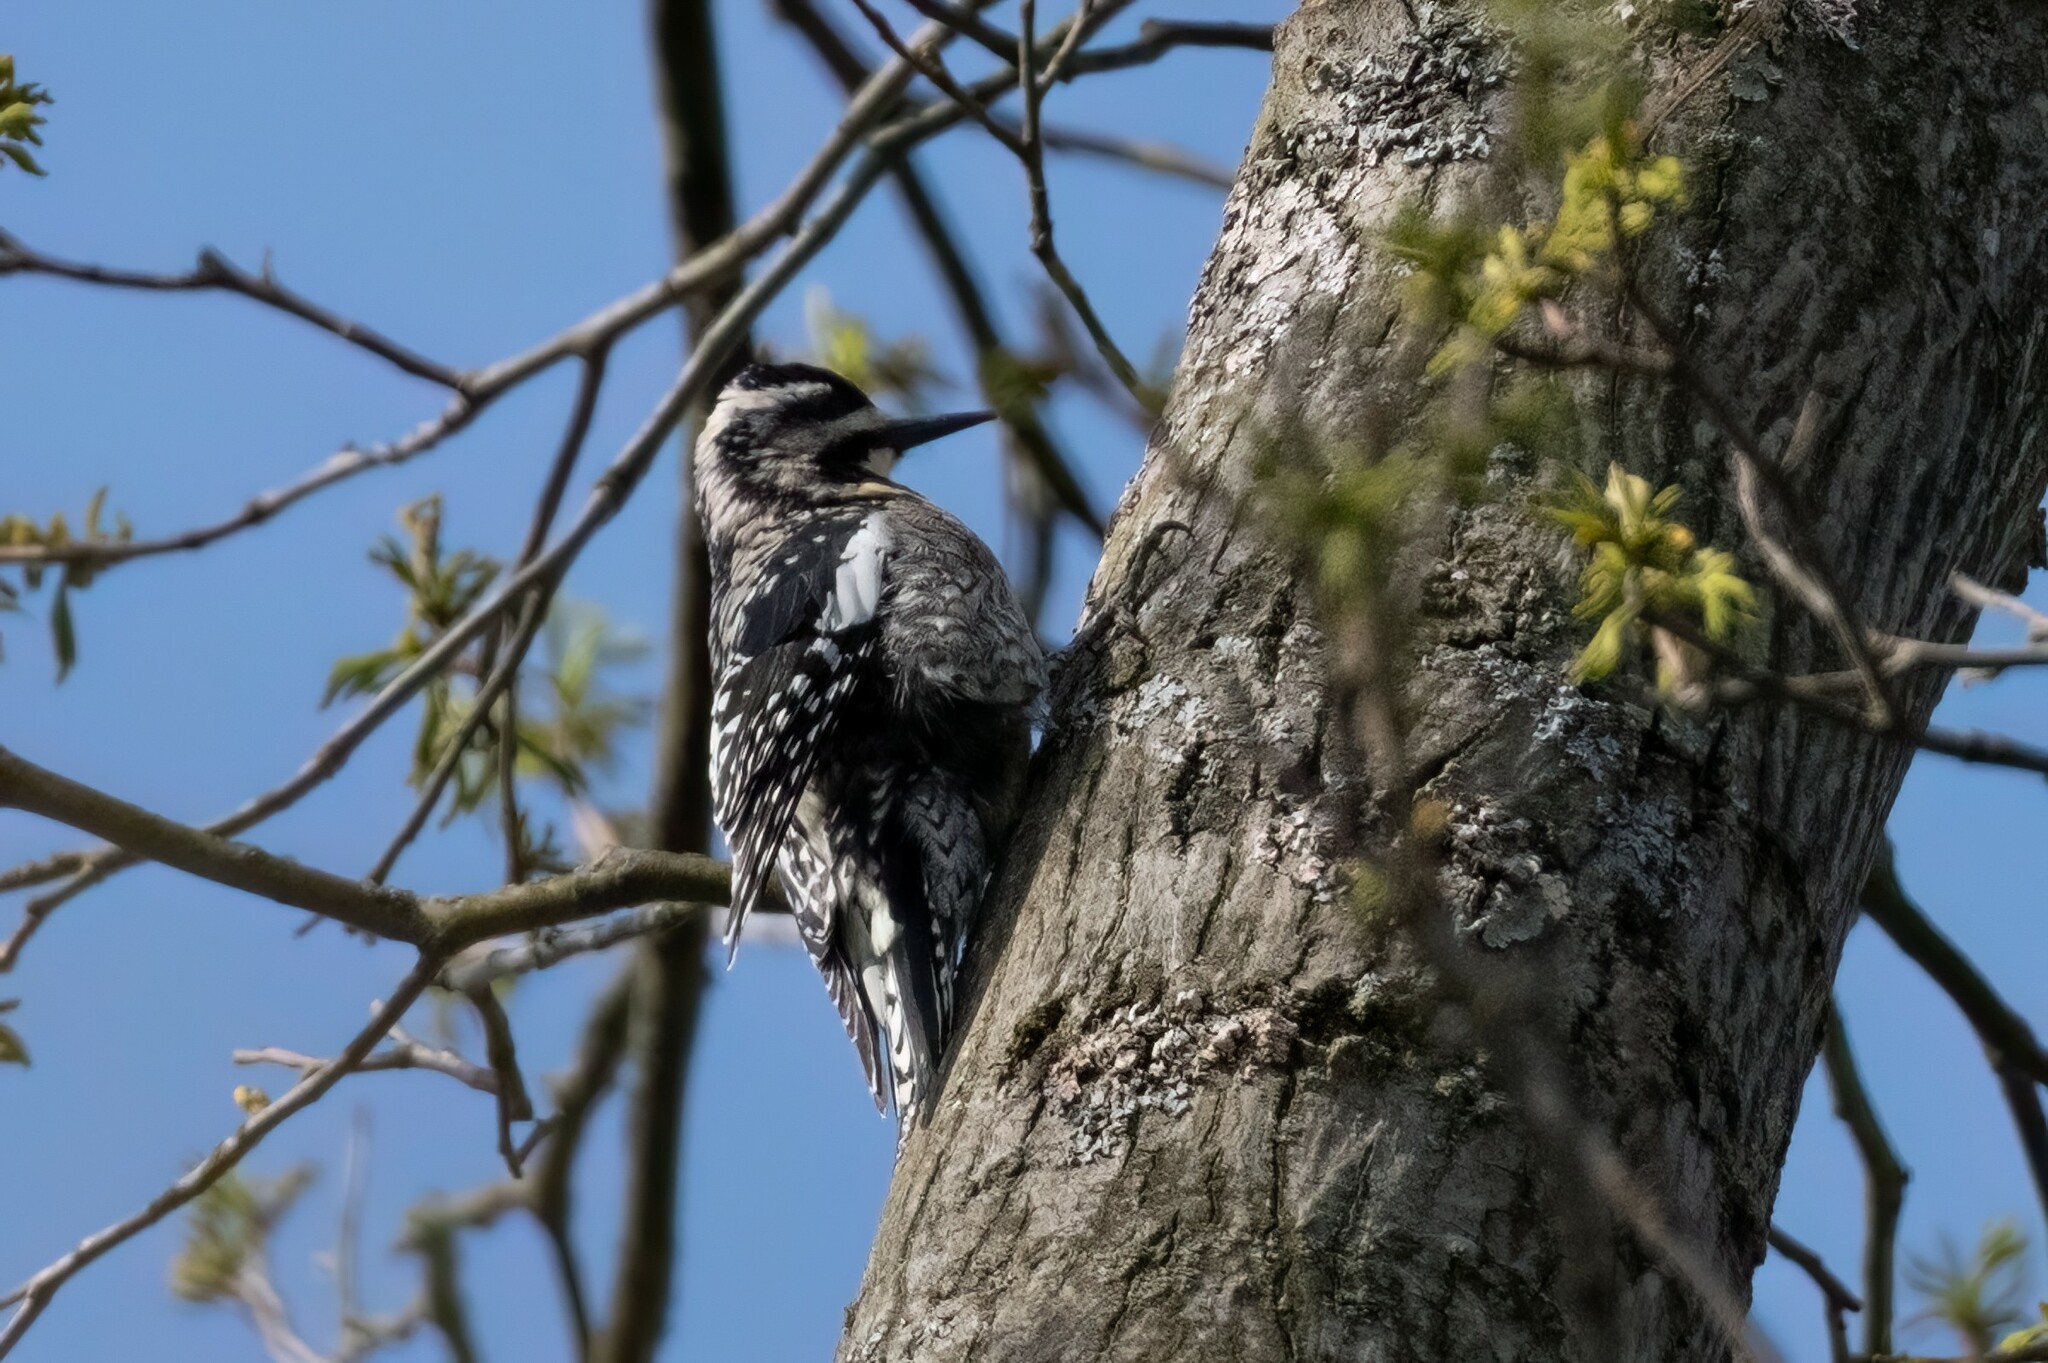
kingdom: Animalia
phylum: Chordata
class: Aves
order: Piciformes
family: Picidae
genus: Sphyrapicus
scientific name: Sphyrapicus varius
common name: Yellow-bellied sapsucker
